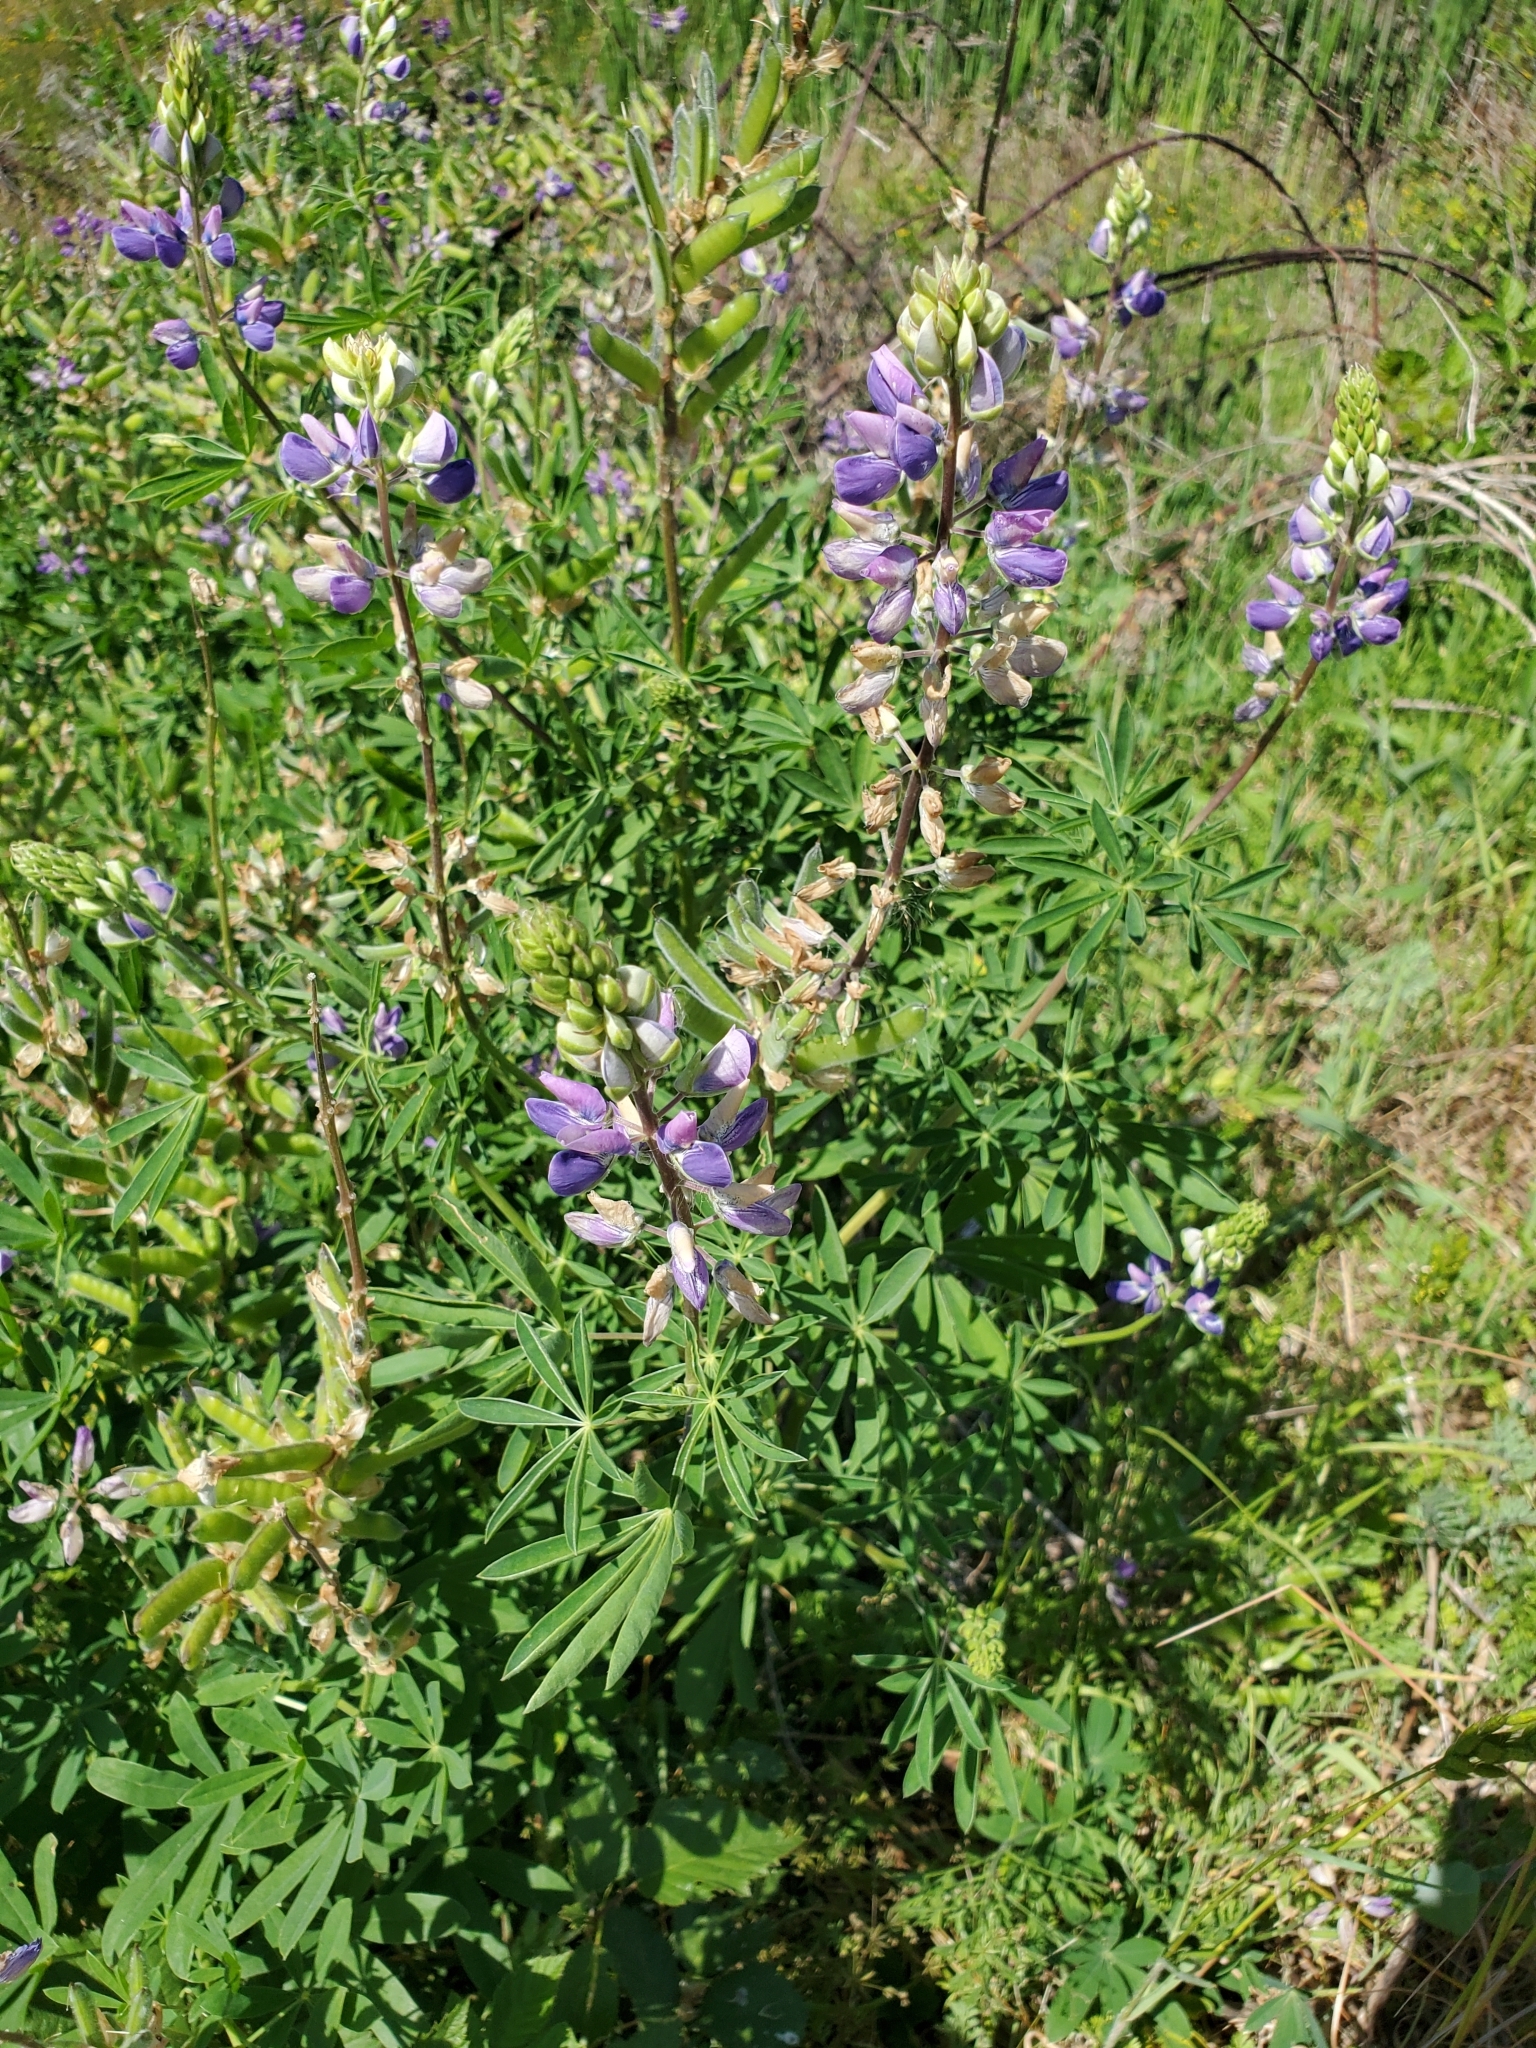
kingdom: Plantae
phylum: Tracheophyta
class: Magnoliopsida
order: Fabales
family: Fabaceae
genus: Lupinus
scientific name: Lupinus rivularis
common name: Riverbank lupine
